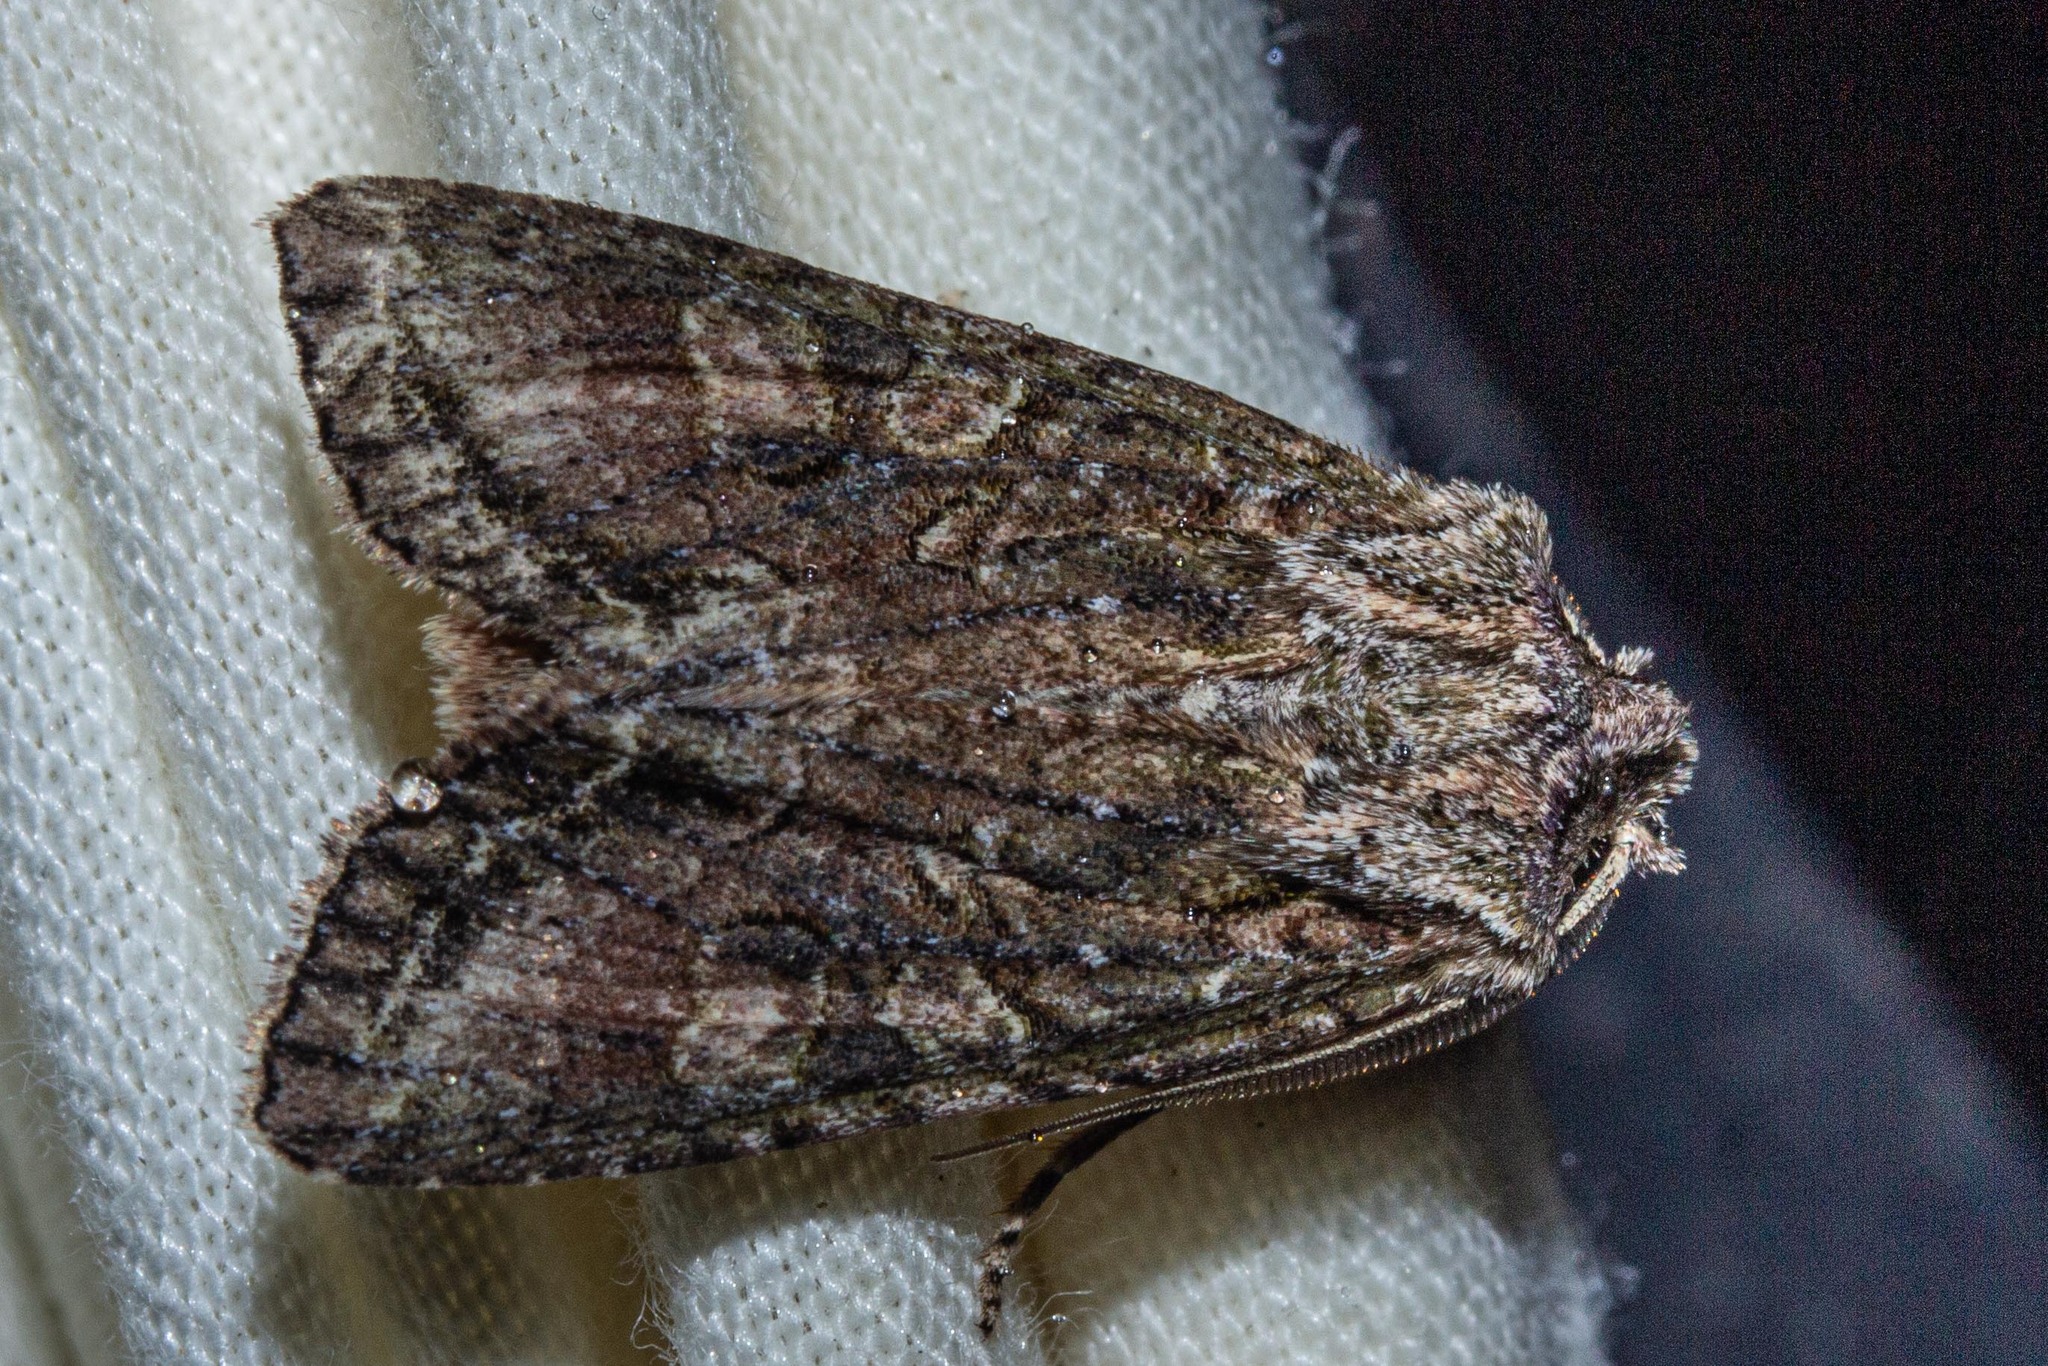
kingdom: Animalia
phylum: Arthropoda
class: Insecta
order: Lepidoptera
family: Noctuidae
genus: Ichneutica
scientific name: Ichneutica mutans
